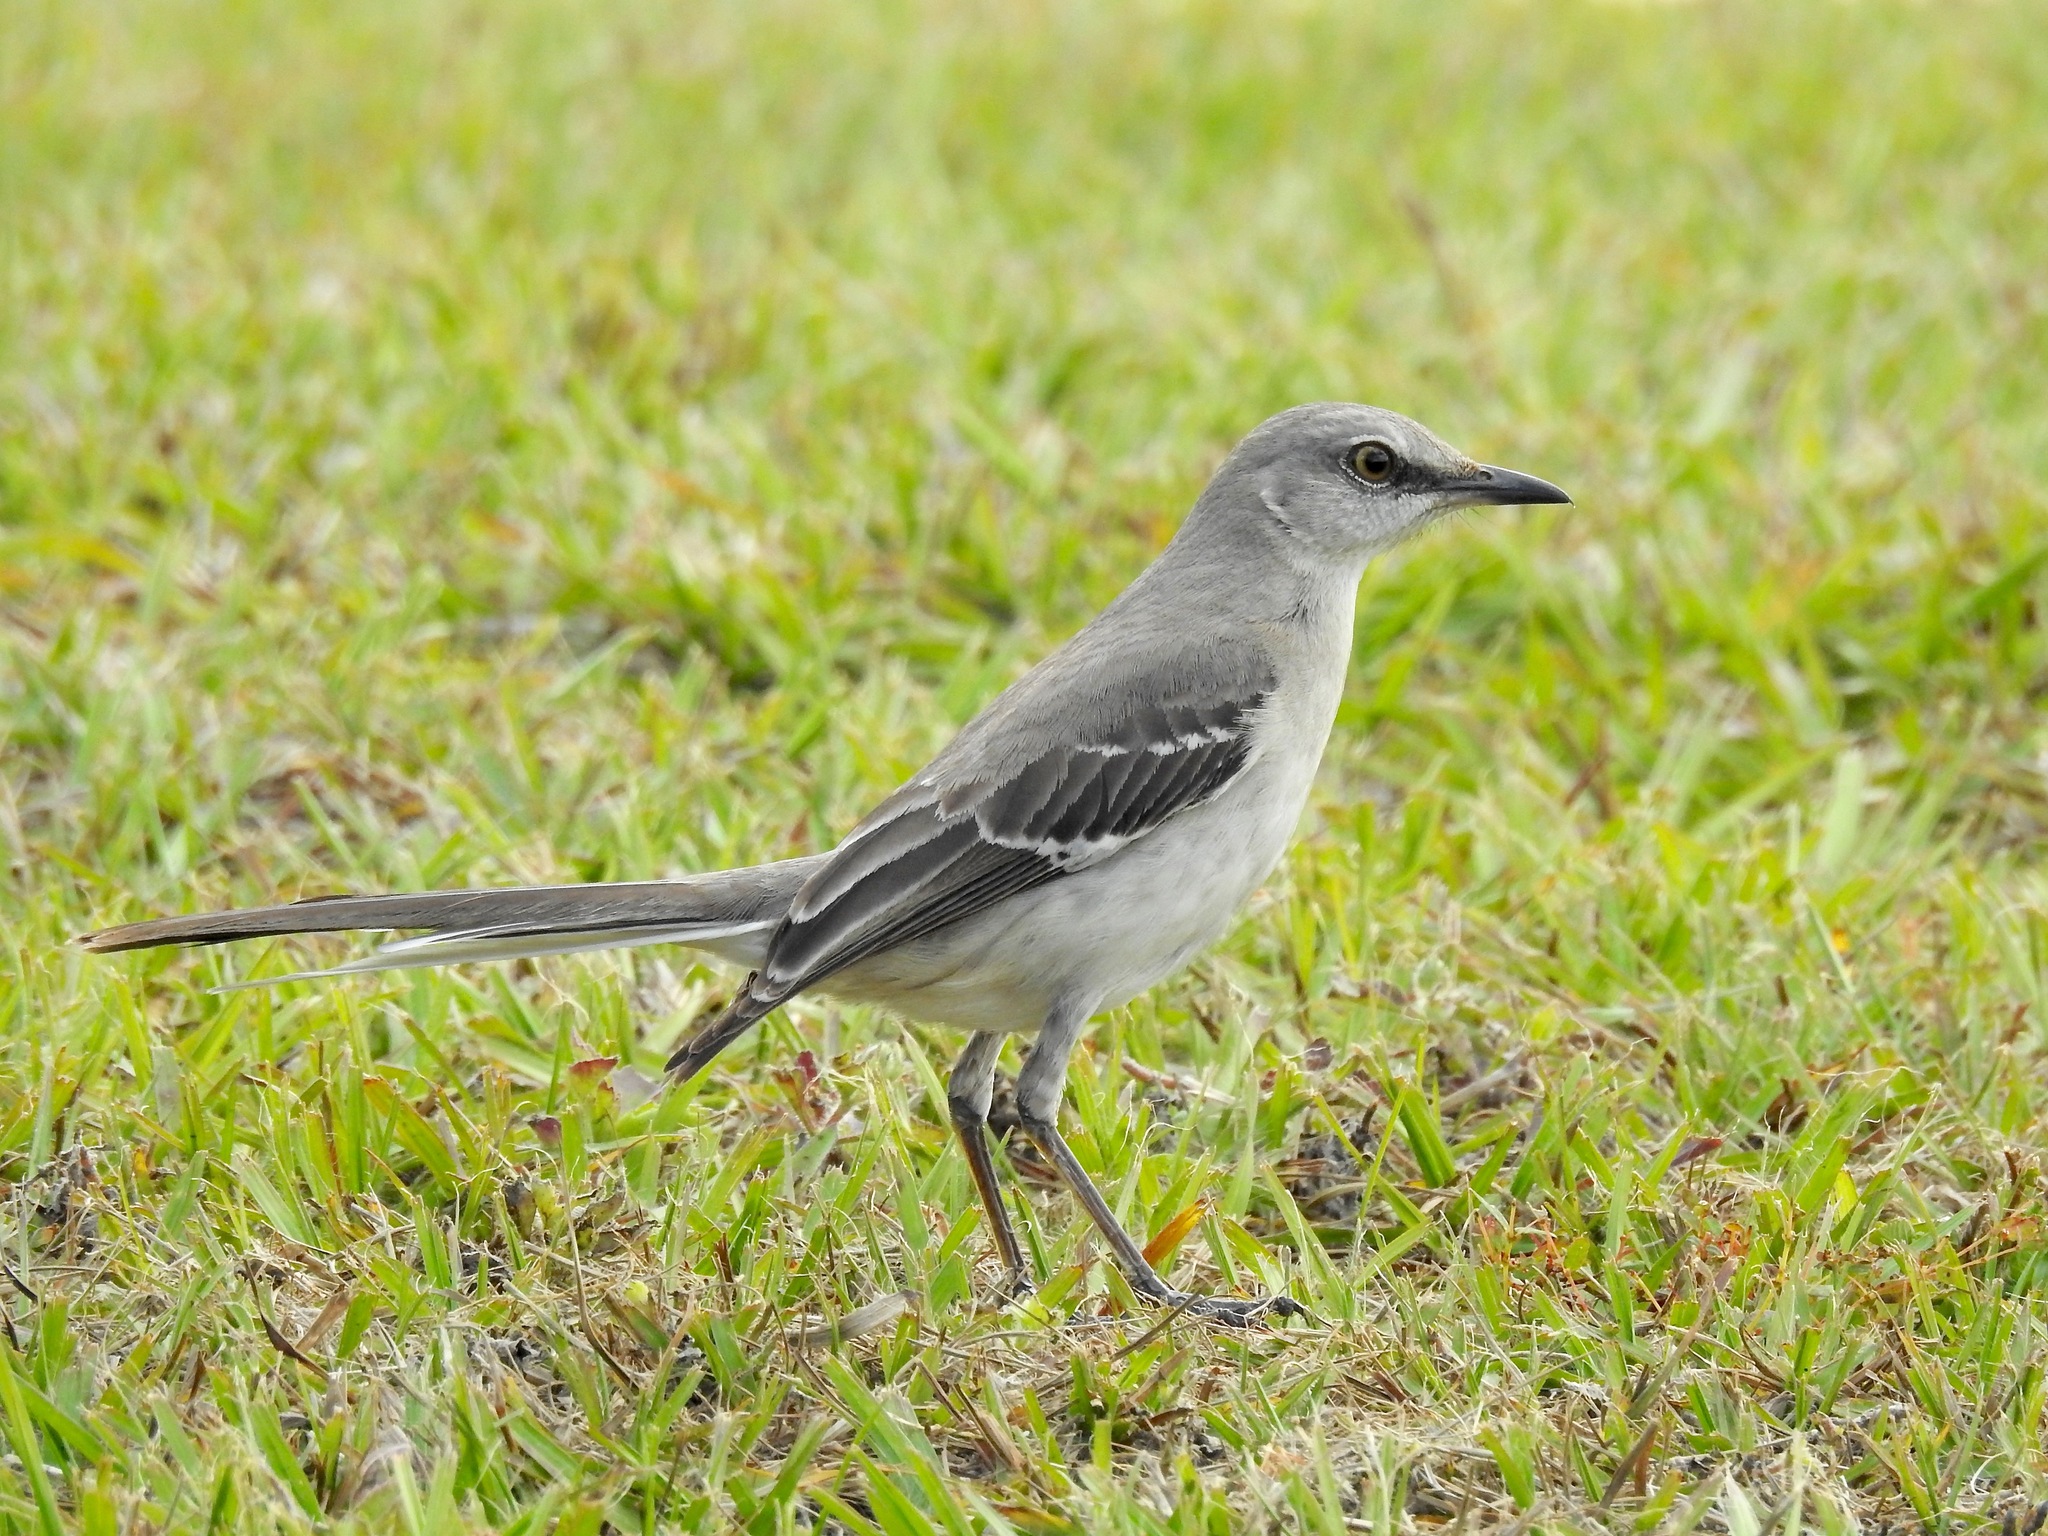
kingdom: Animalia
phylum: Chordata
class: Aves
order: Passeriformes
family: Mimidae
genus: Mimus
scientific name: Mimus polyglottos
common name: Northern mockingbird
